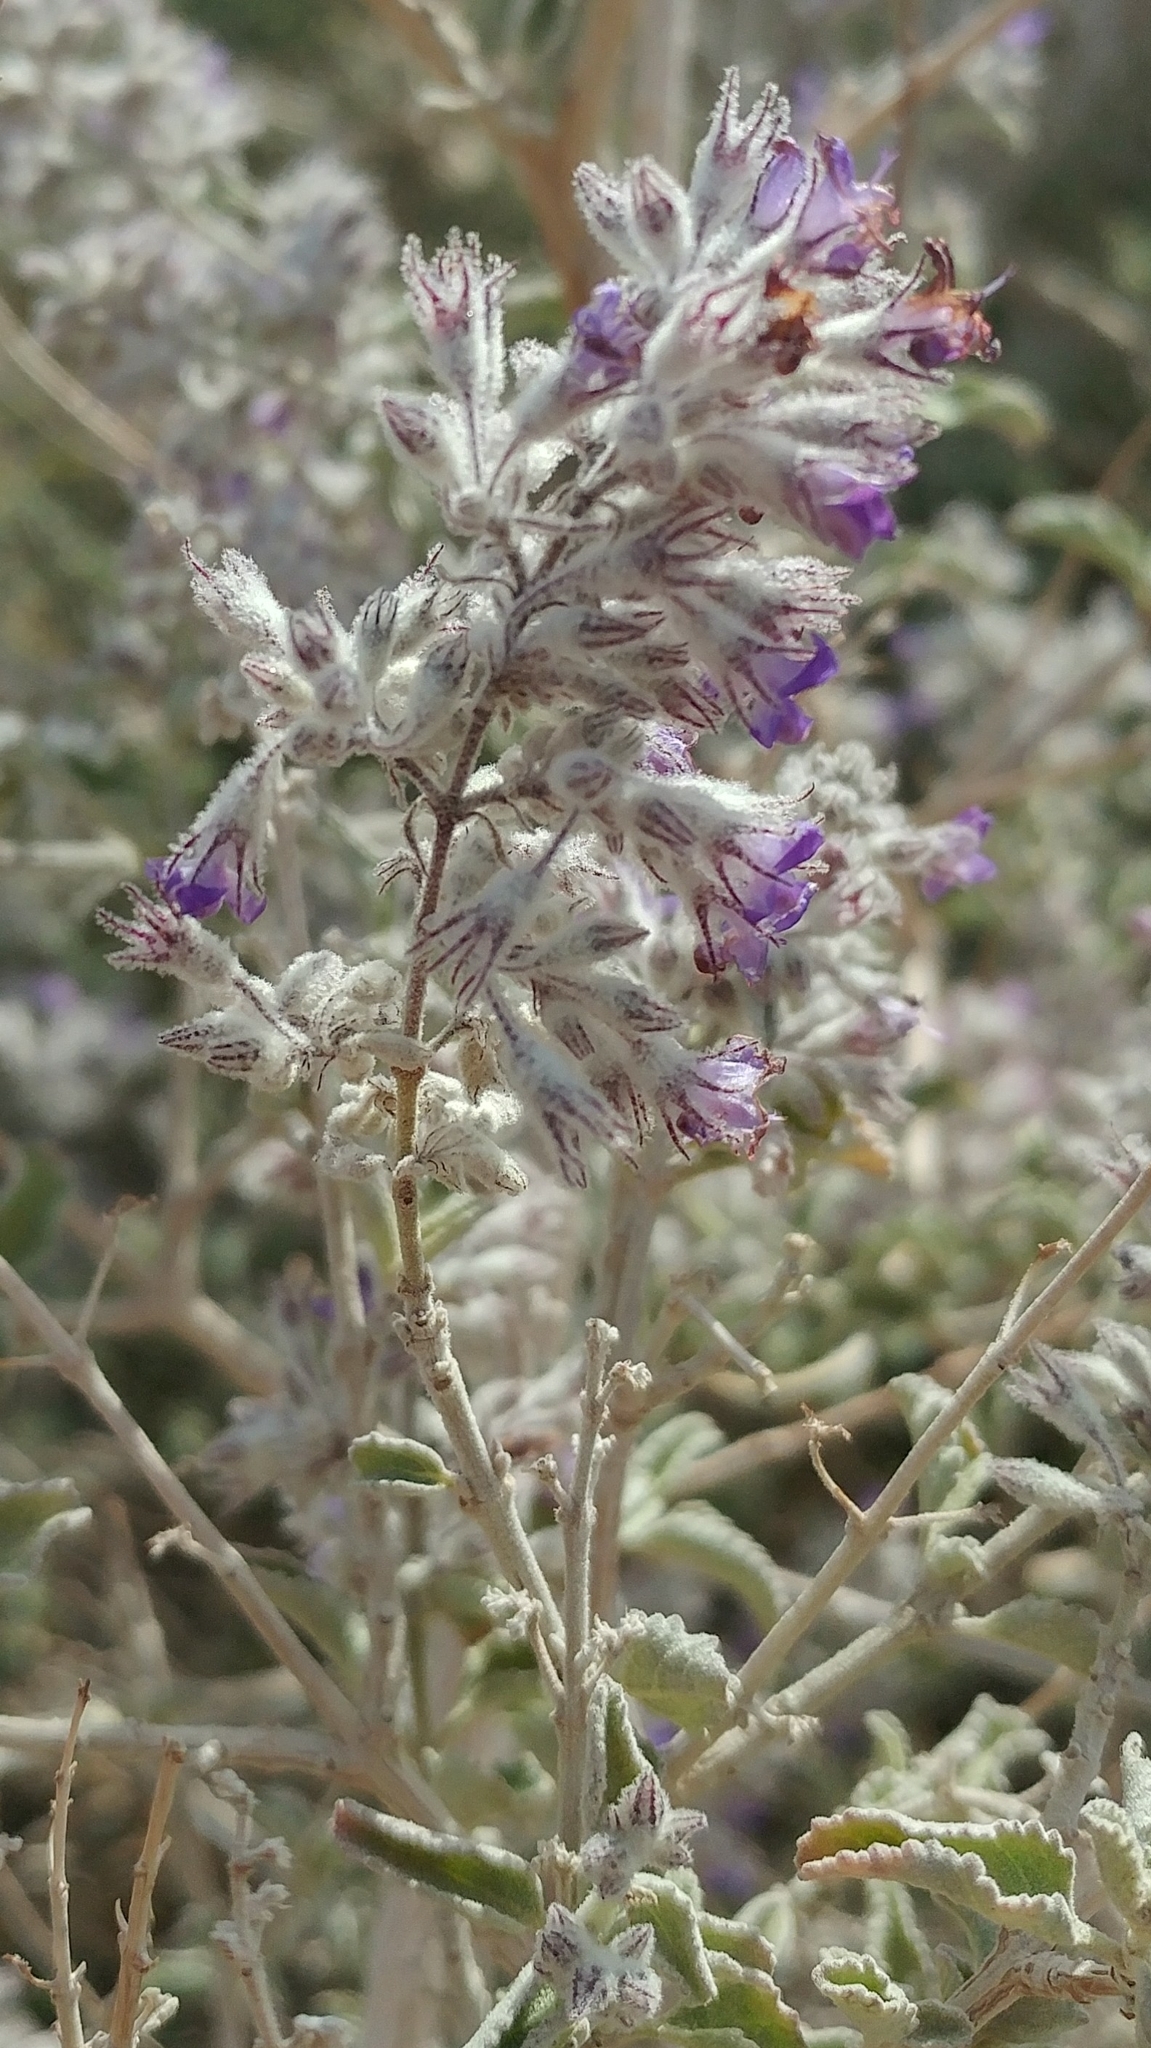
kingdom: Plantae
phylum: Tracheophyta
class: Magnoliopsida
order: Lamiales
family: Lamiaceae
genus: Condea
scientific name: Condea emoryi
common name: Chia
